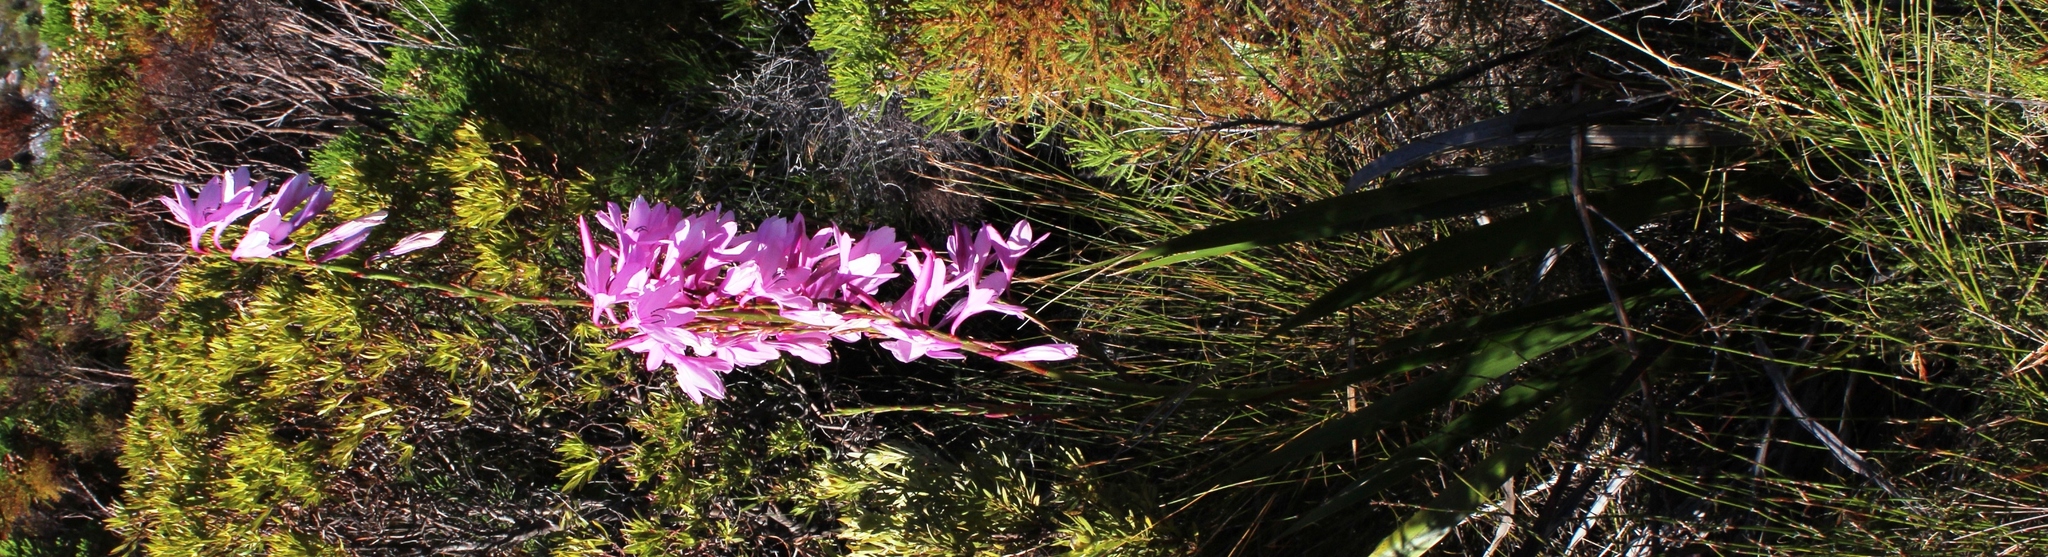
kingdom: Plantae
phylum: Tracheophyta
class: Liliopsida
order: Asparagales
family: Iridaceae
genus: Watsonia
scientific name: Watsonia borbonica
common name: Bugle-lily
